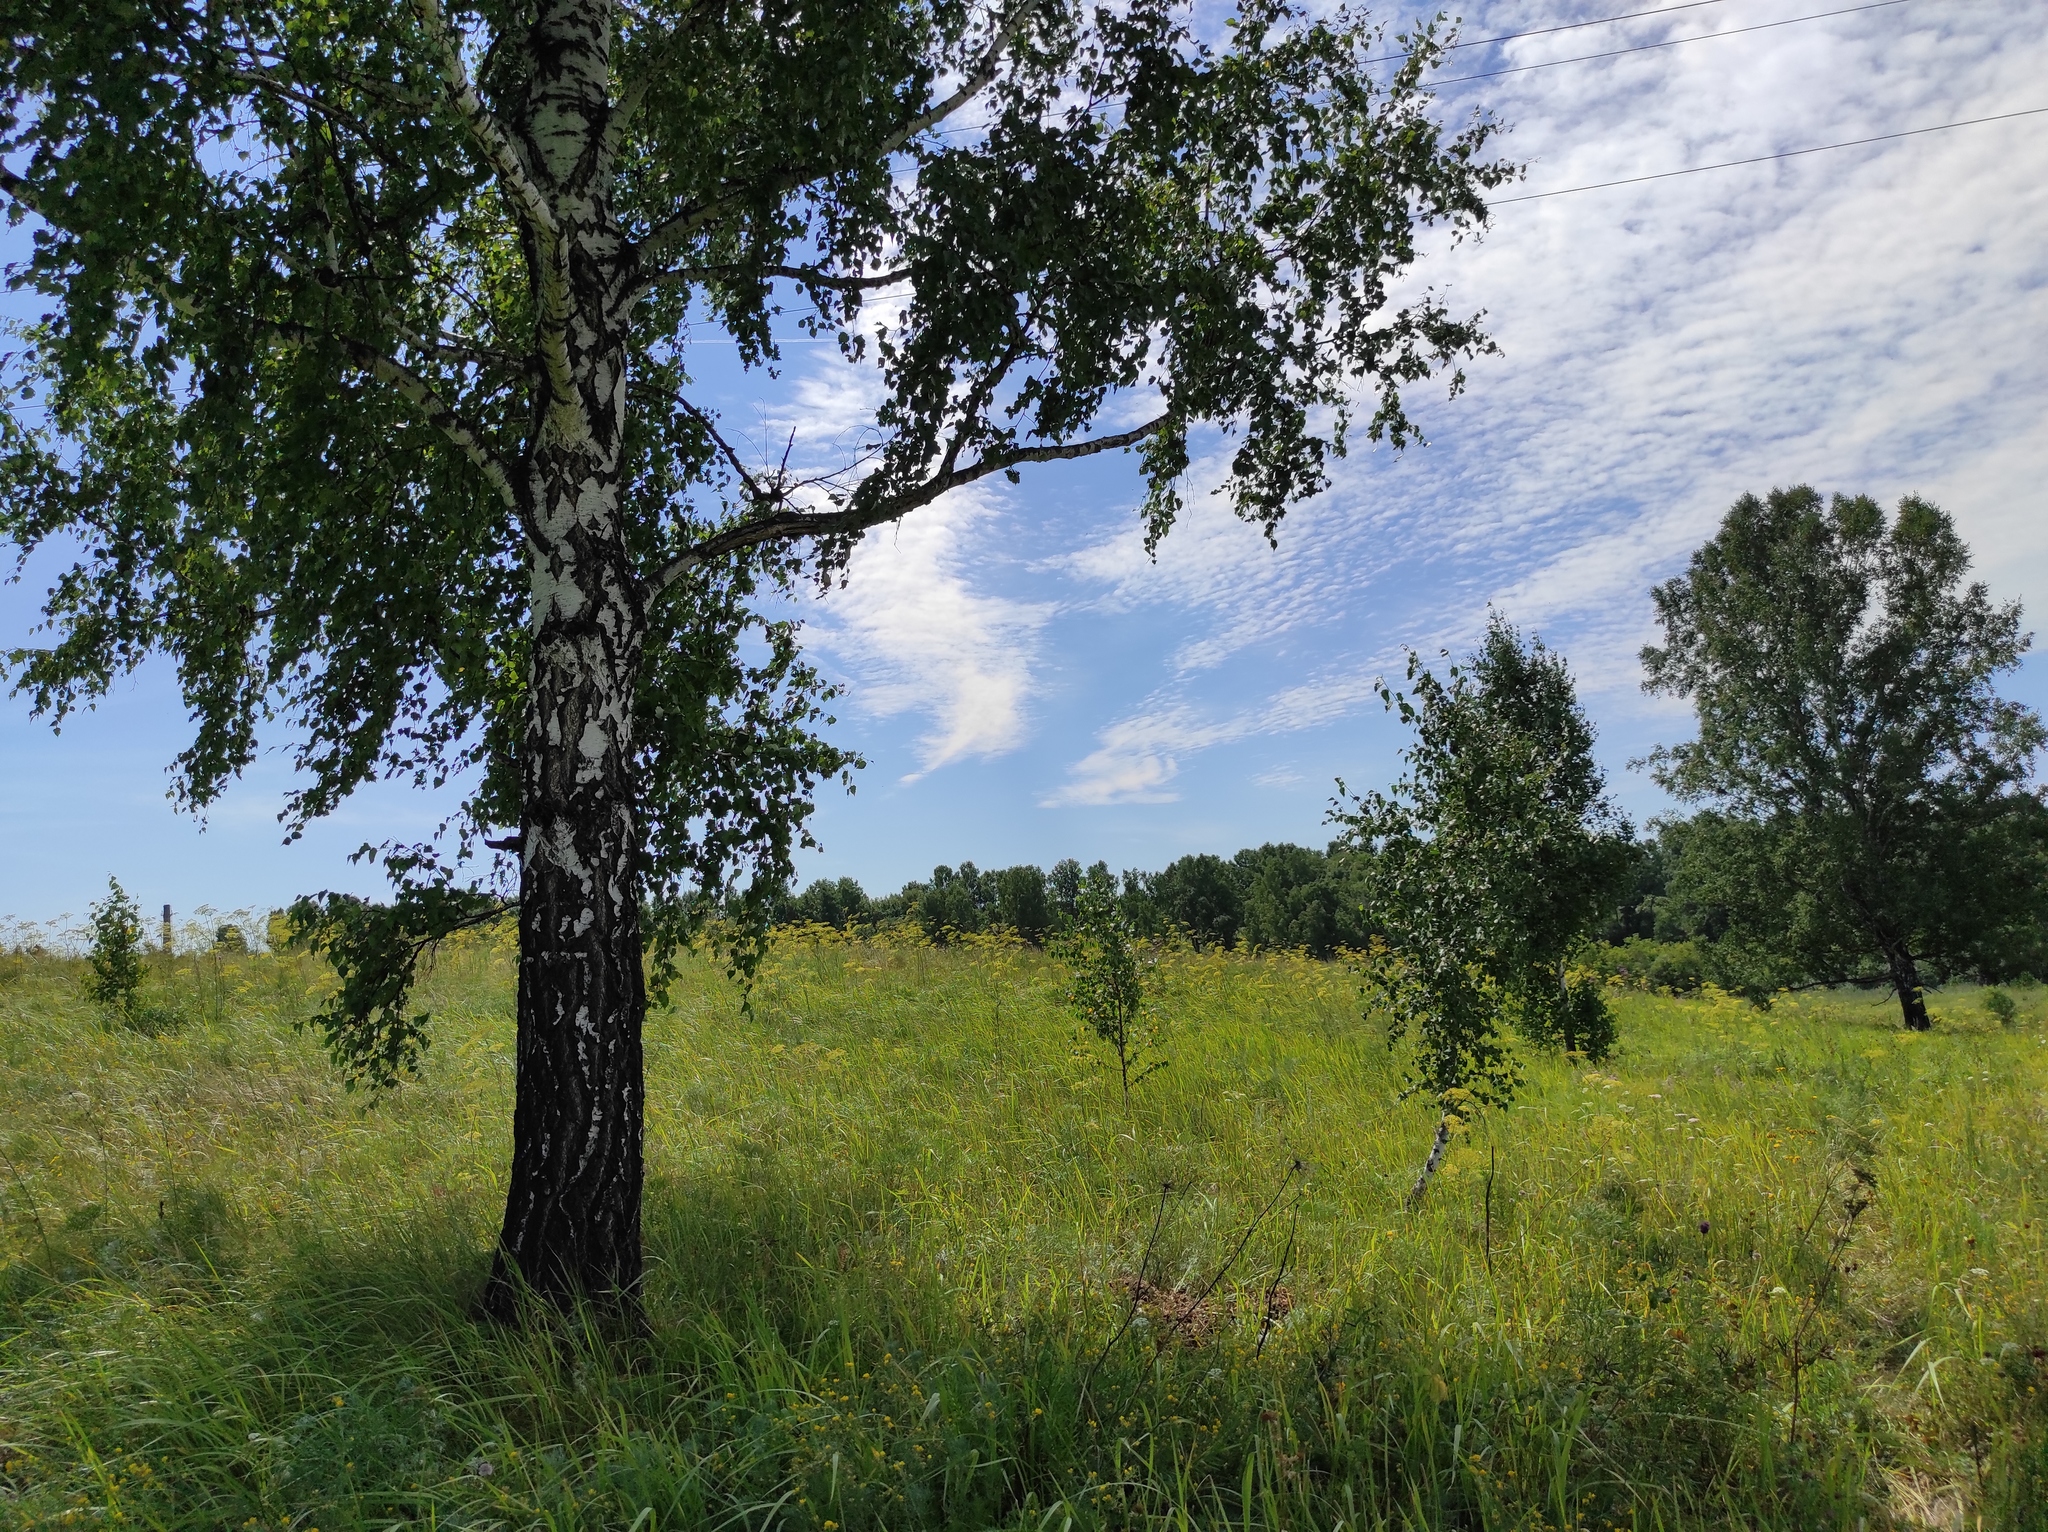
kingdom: Plantae
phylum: Tracheophyta
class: Magnoliopsida
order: Fagales
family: Betulaceae
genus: Betula
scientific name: Betula pendula
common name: Silver birch
